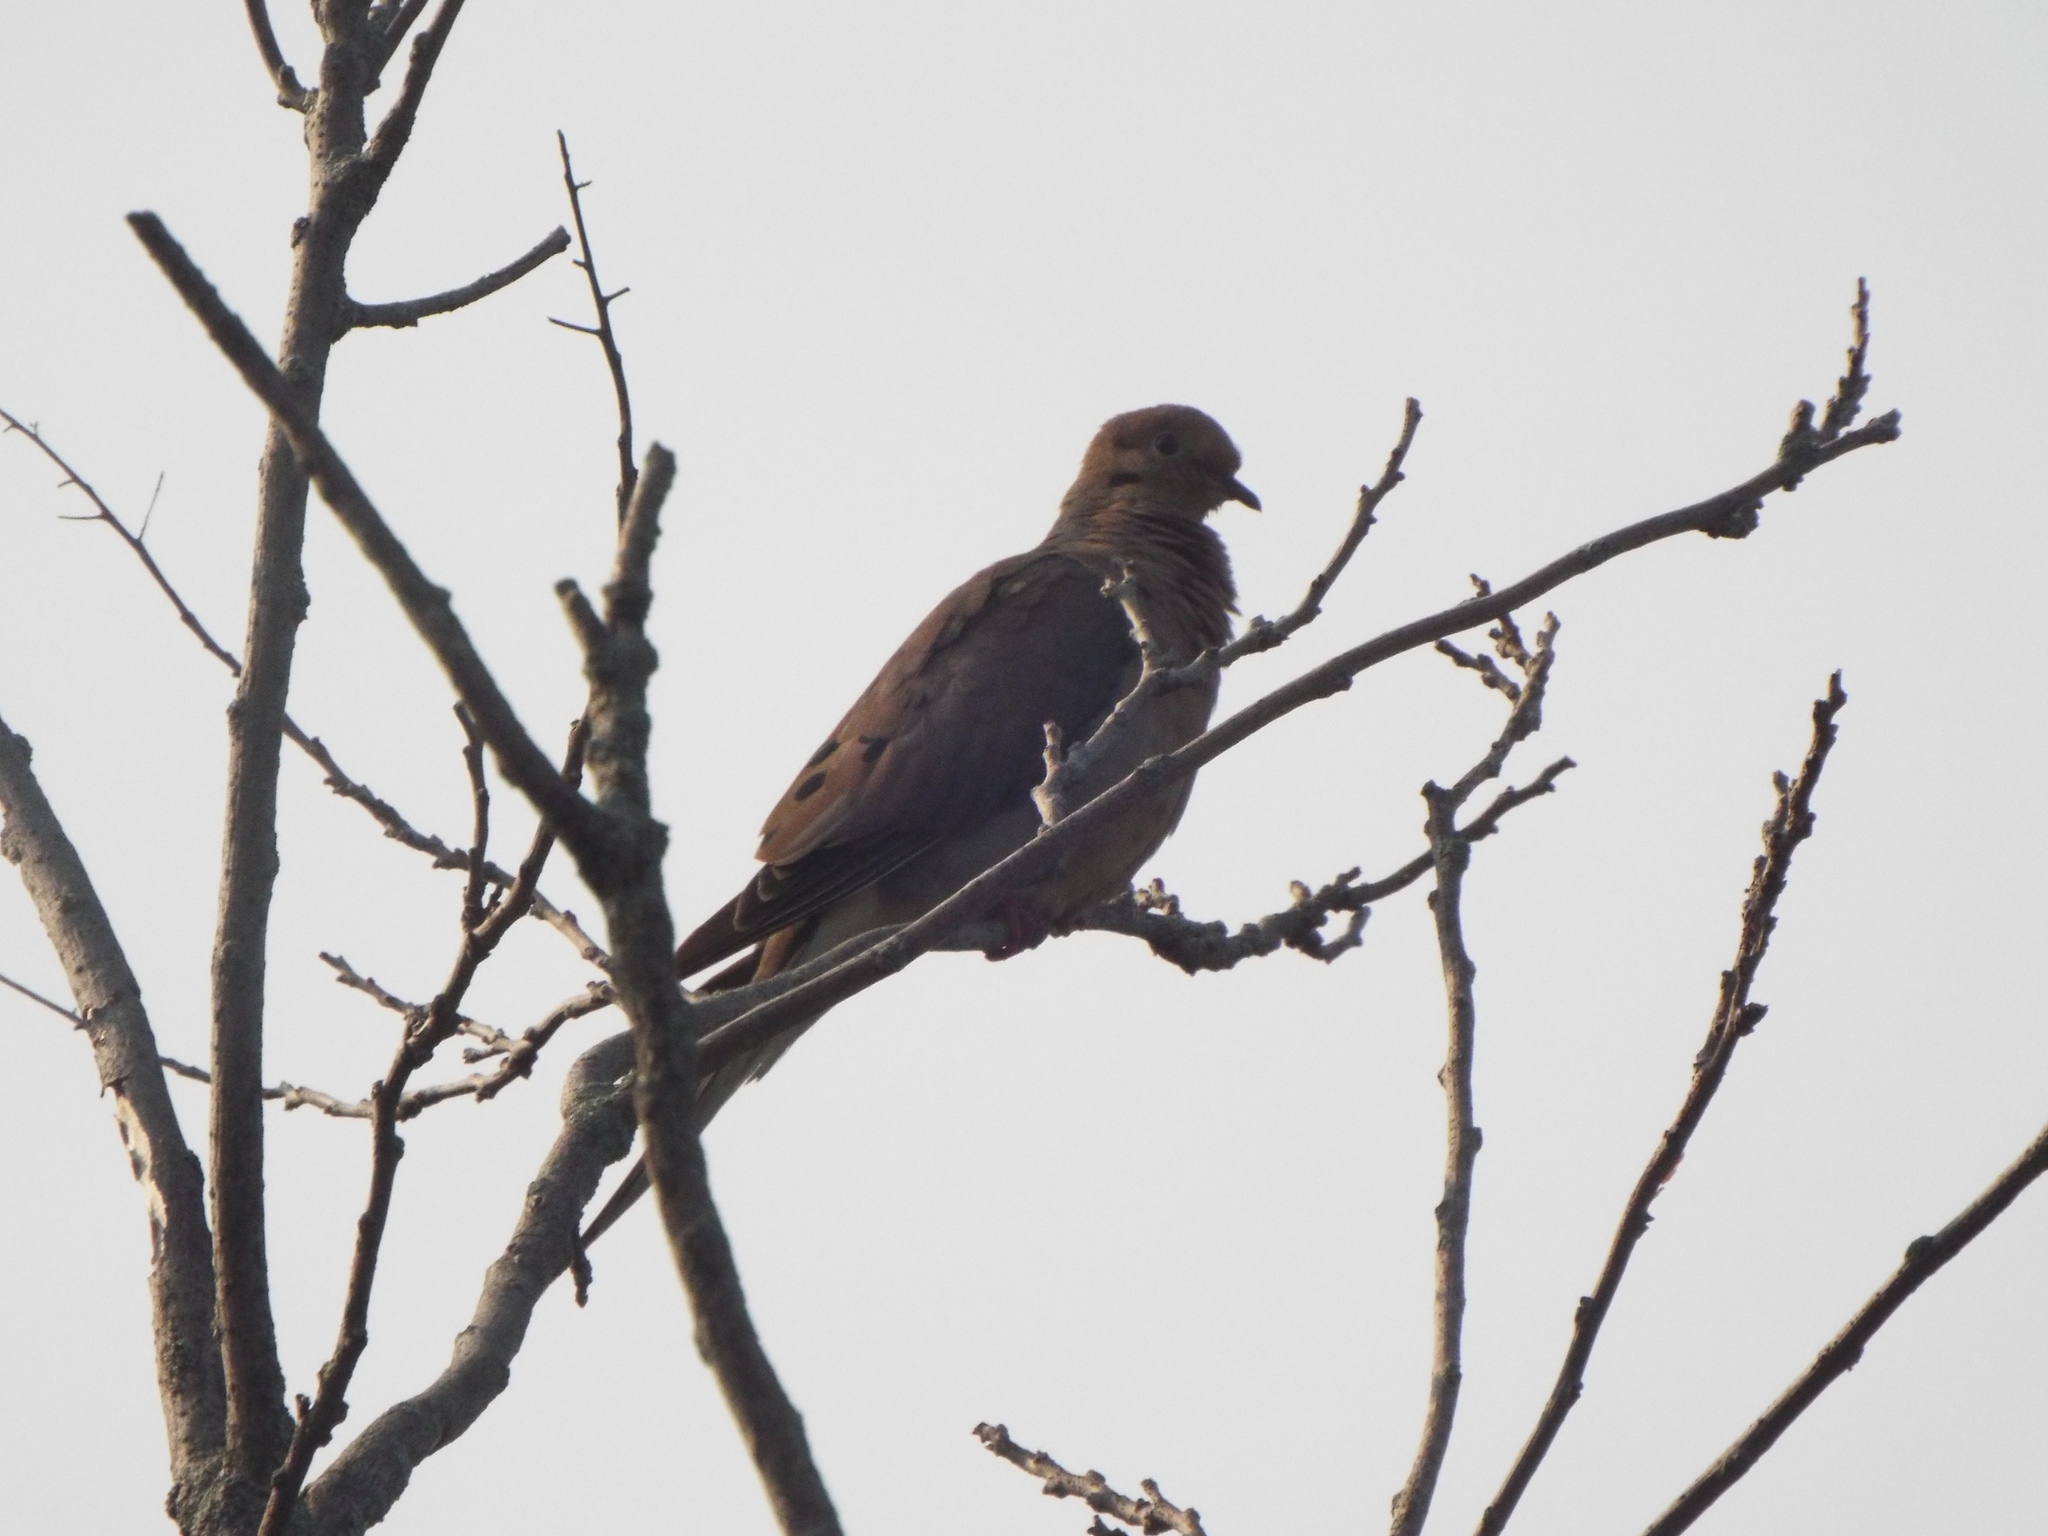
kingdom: Animalia
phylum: Chordata
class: Aves
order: Columbiformes
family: Columbidae
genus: Zenaida
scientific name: Zenaida macroura
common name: Mourning dove
